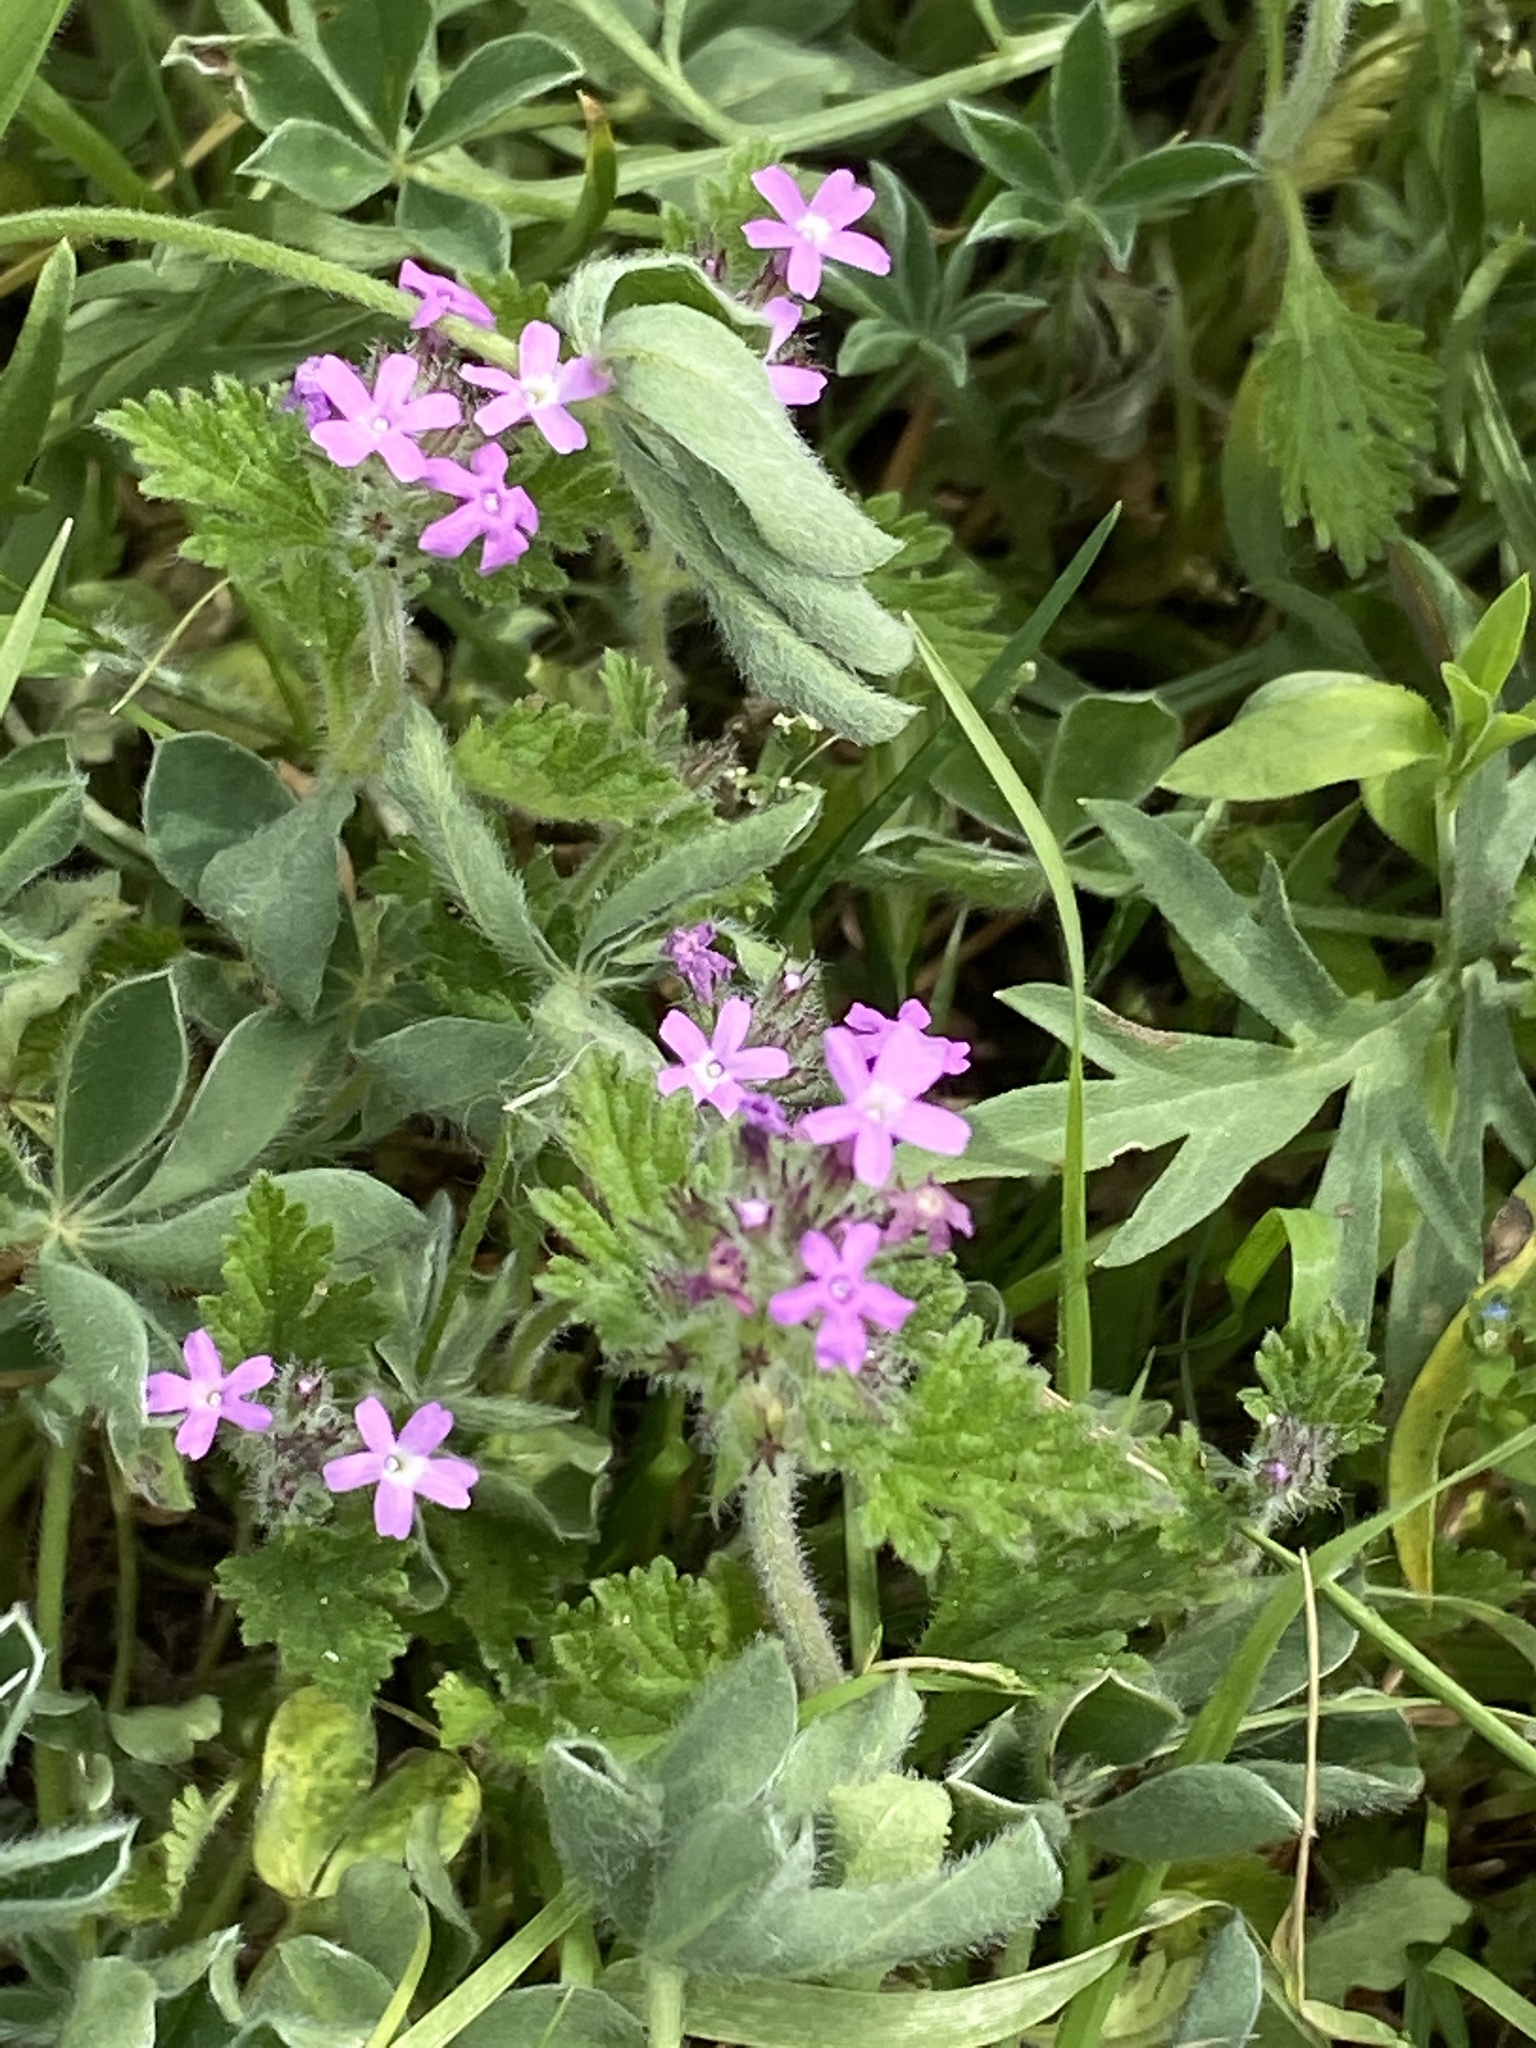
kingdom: Plantae
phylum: Tracheophyta
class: Magnoliopsida
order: Lamiales
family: Verbenaceae
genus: Verbena
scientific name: Verbena pumila
